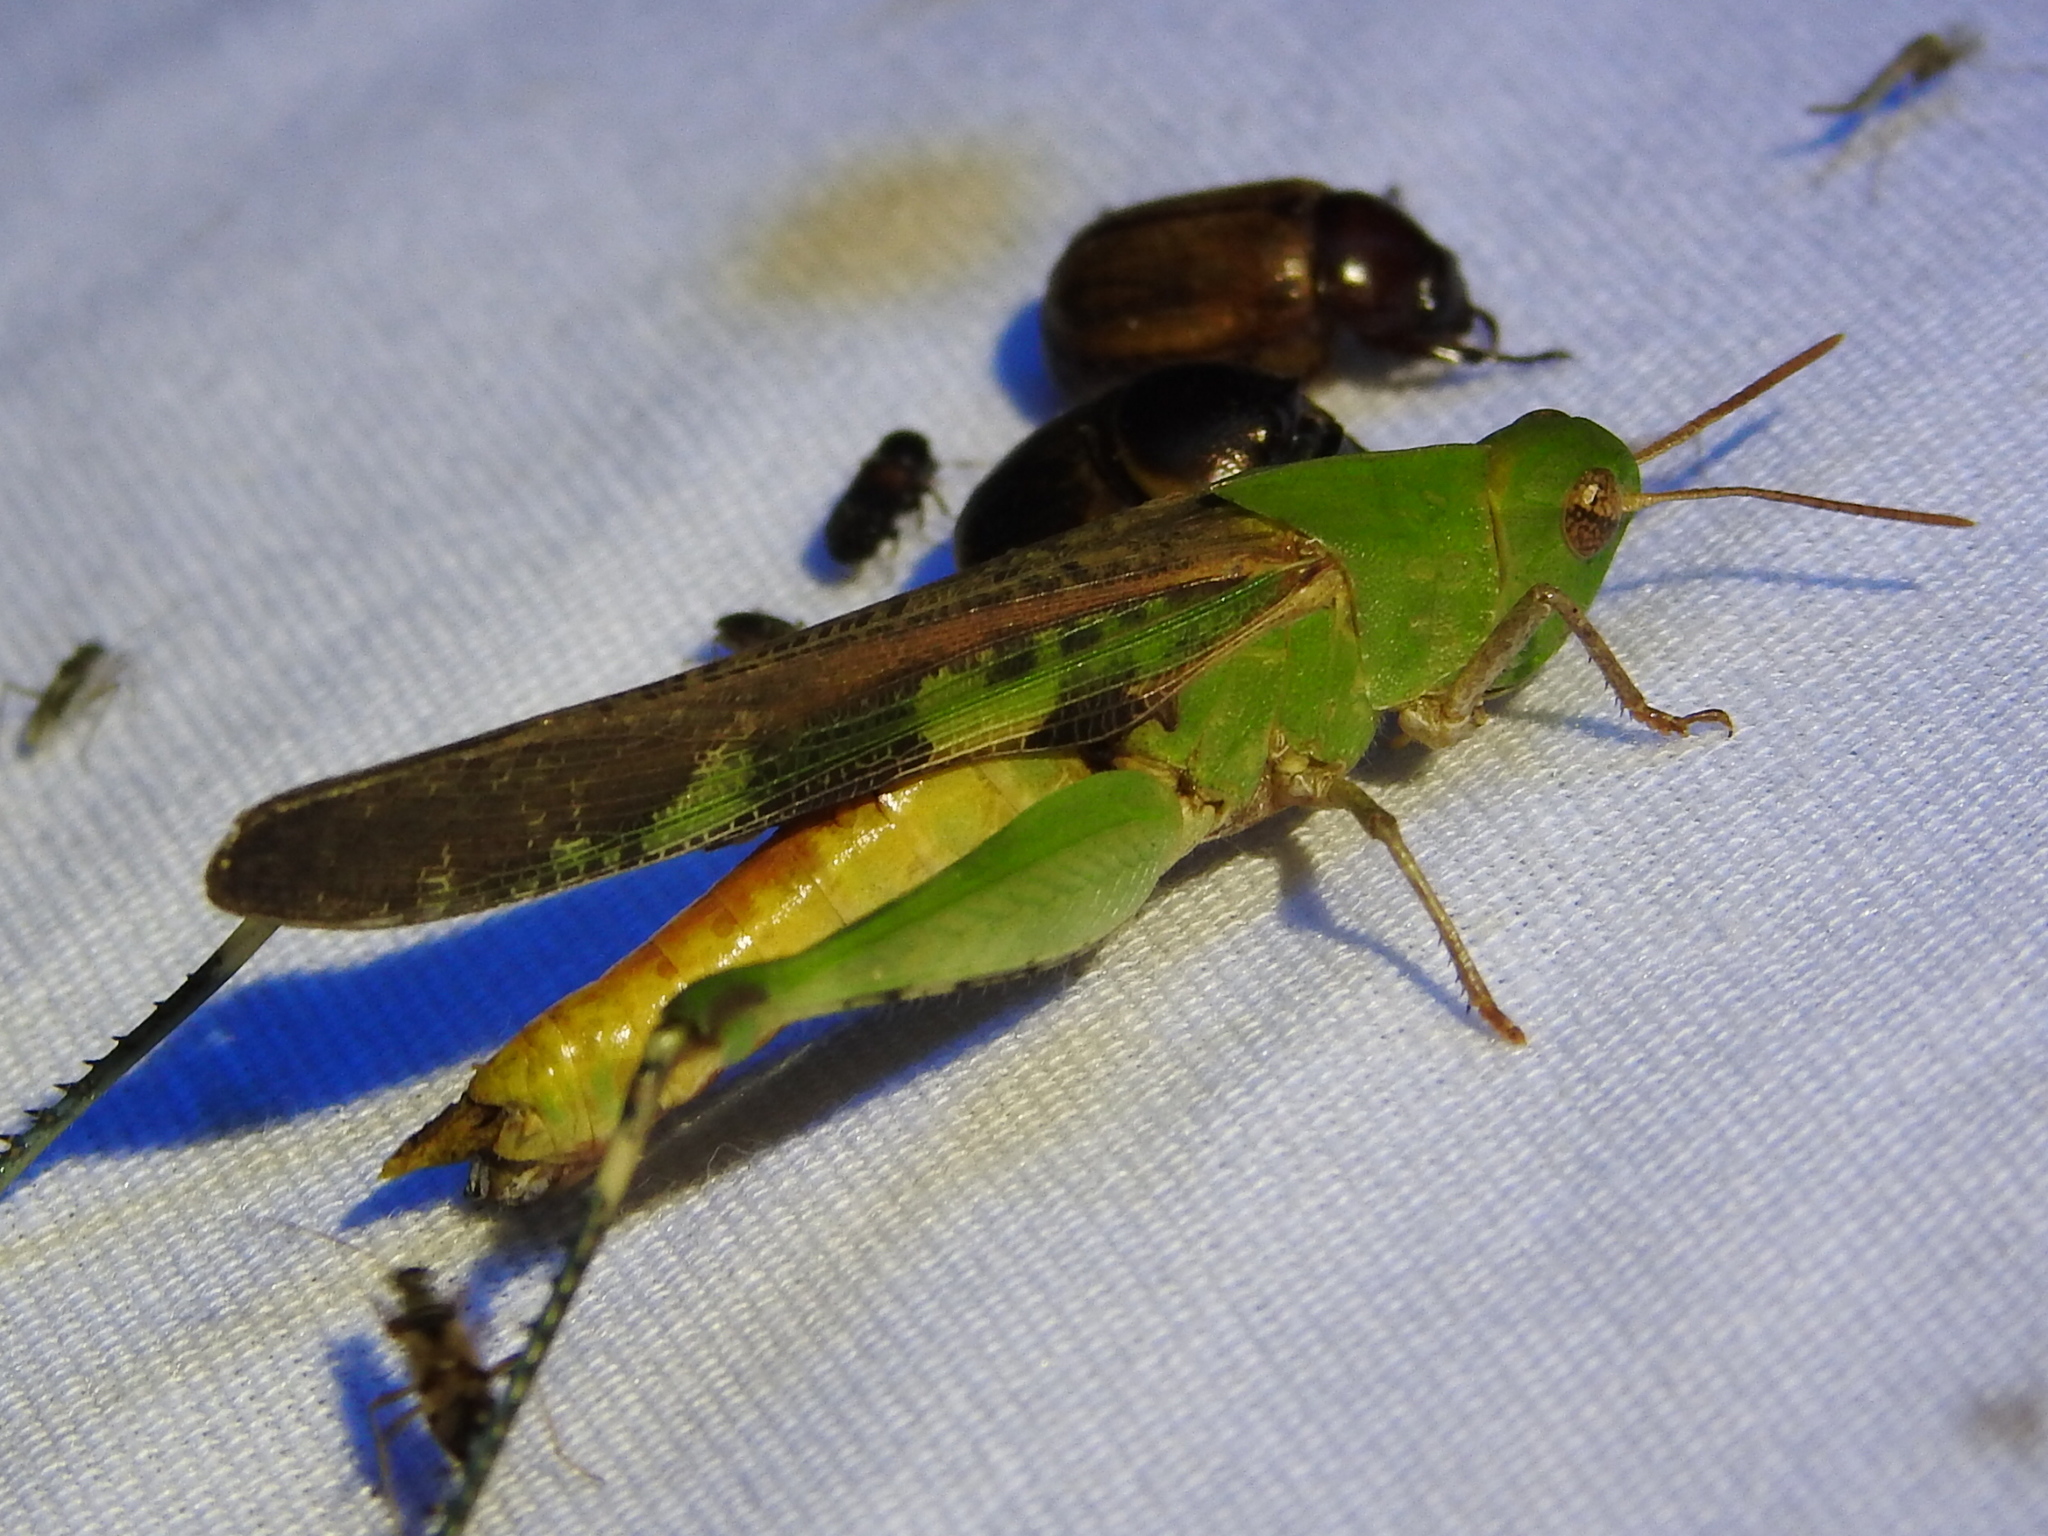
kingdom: Animalia
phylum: Arthropoda
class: Insecta
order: Orthoptera
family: Acrididae
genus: Chortophaga
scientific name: Chortophaga viridifasciata
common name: Green-striped grasshopper
